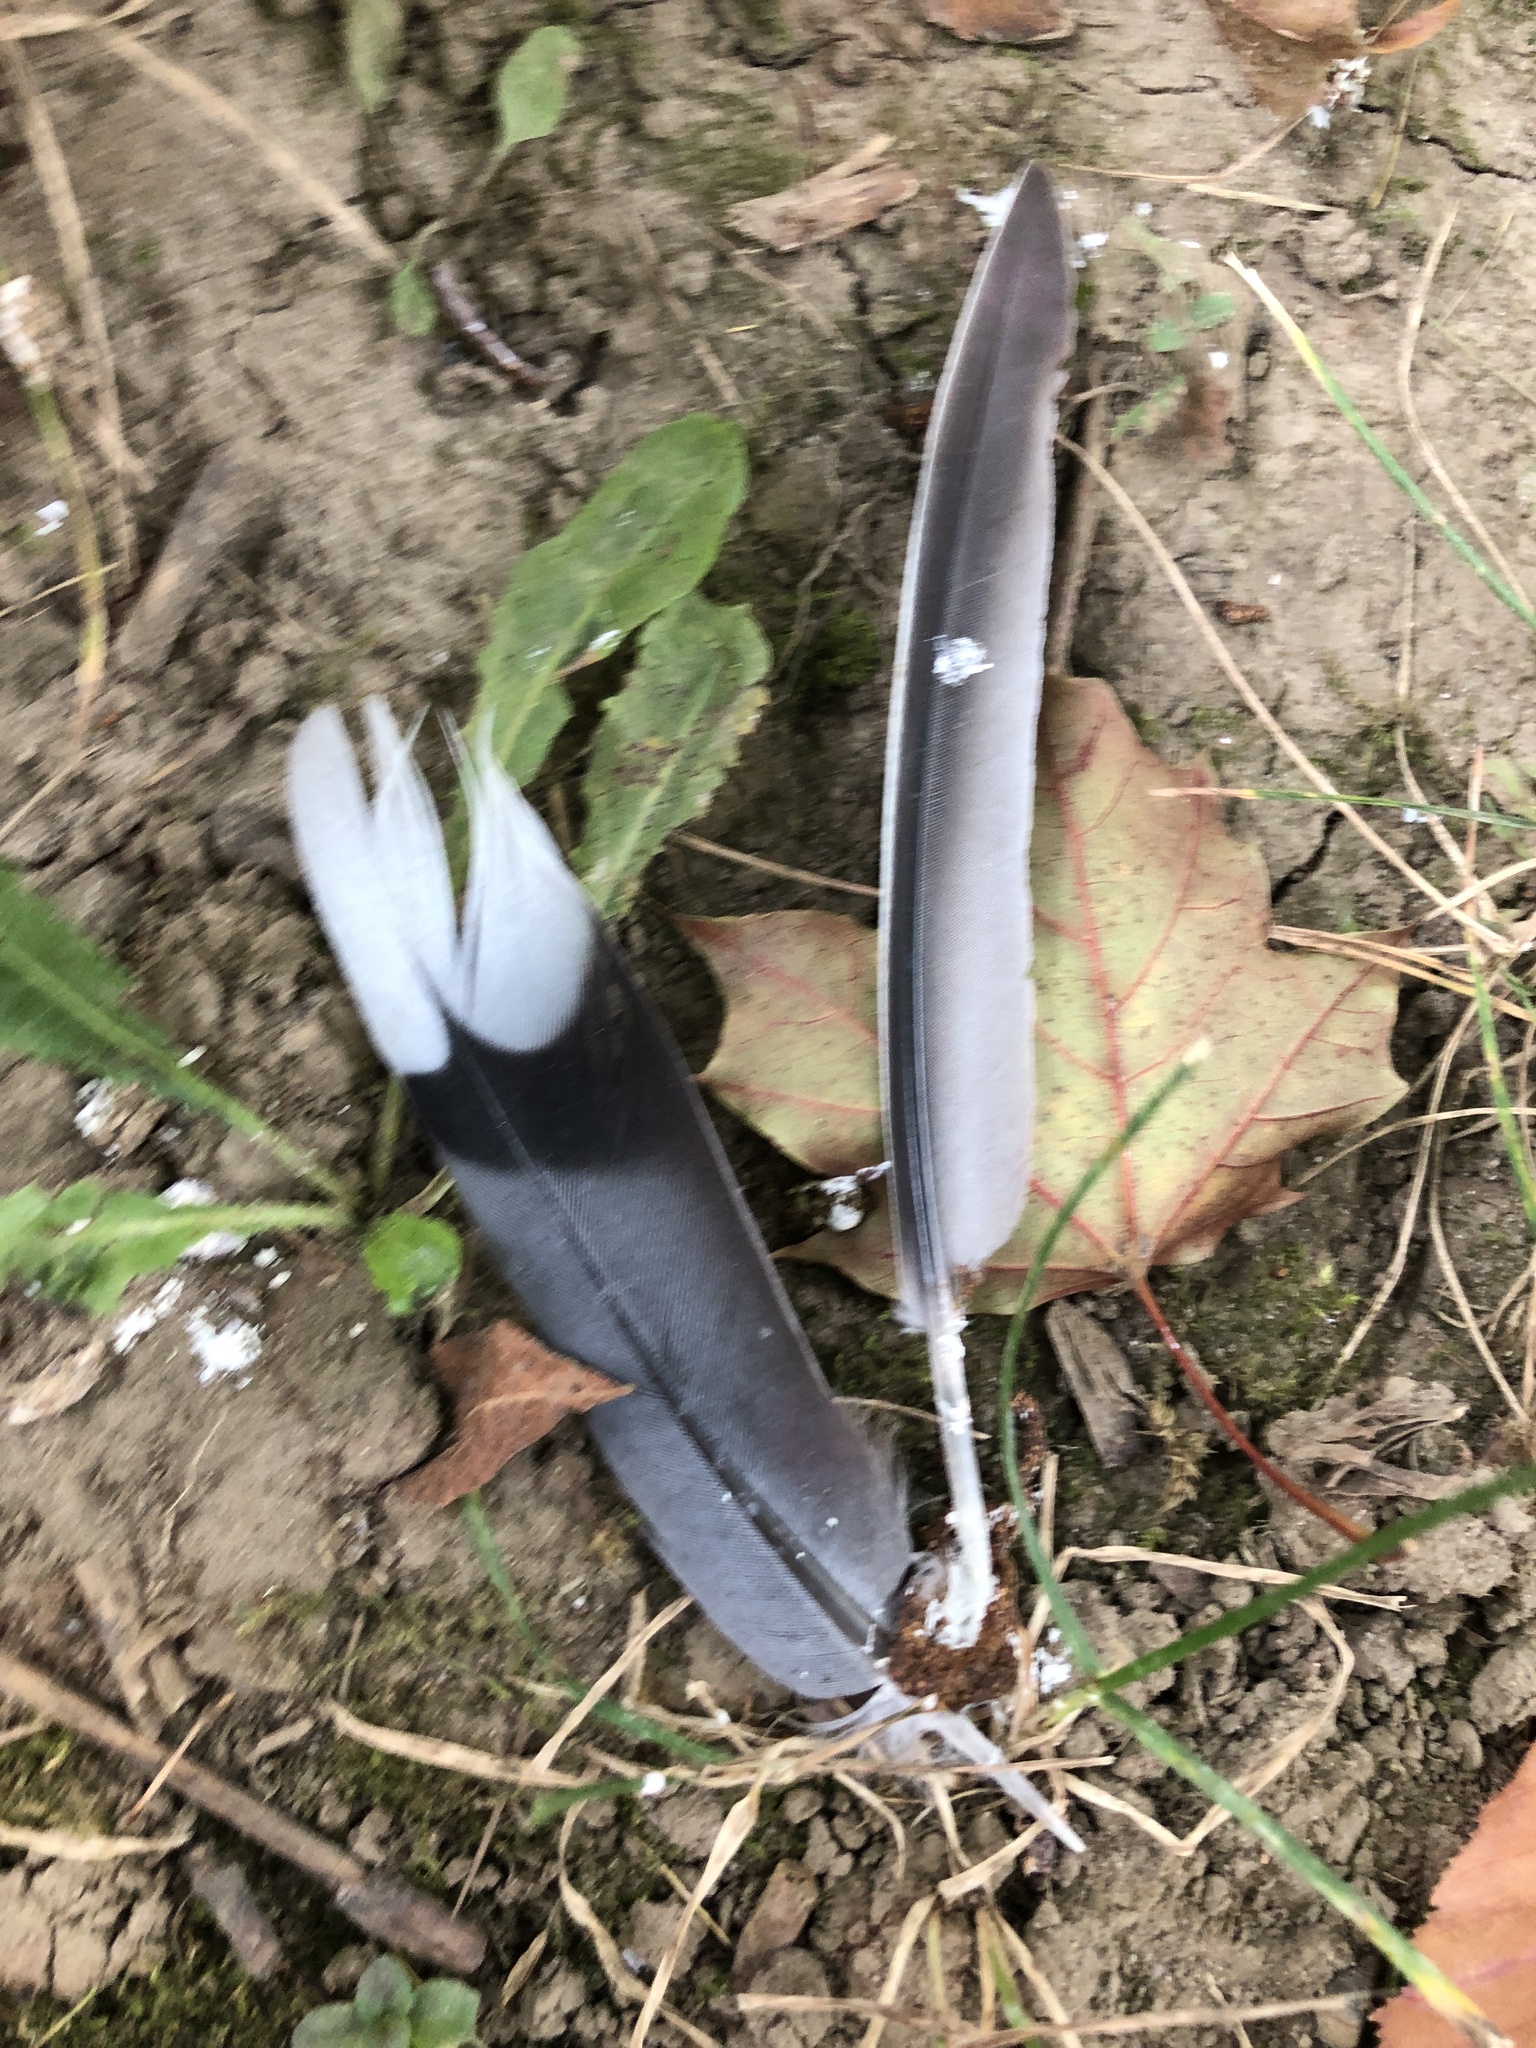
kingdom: Animalia
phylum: Chordata
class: Aves
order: Columbiformes
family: Columbidae
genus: Zenaida
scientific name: Zenaida macroura
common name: Mourning dove
